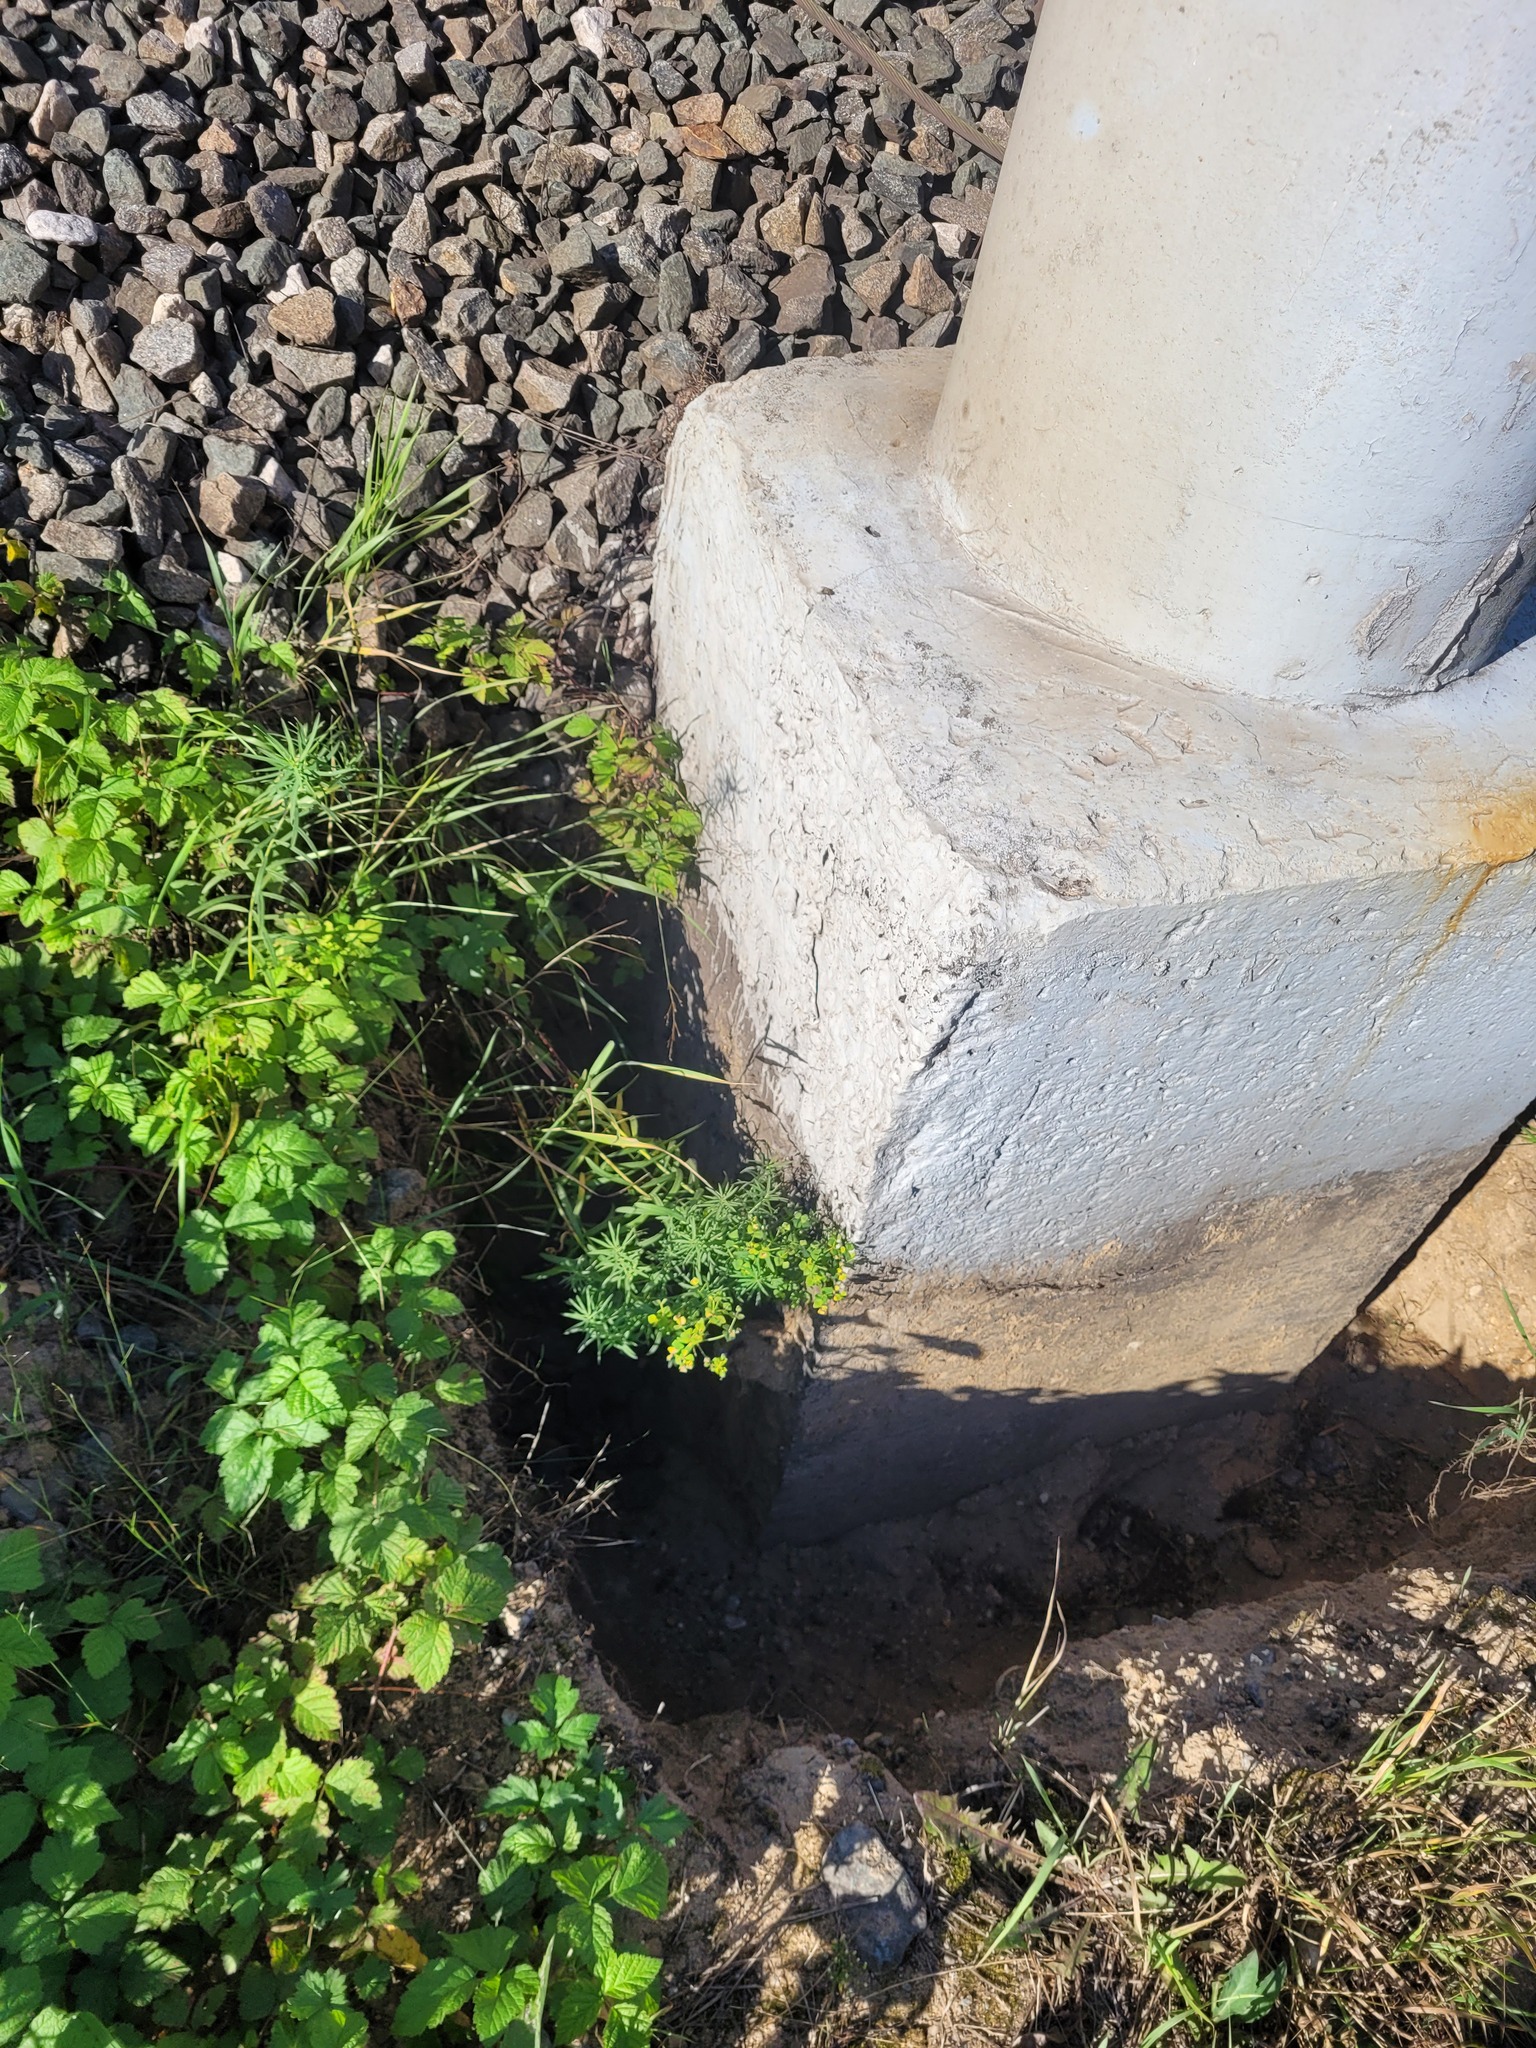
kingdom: Plantae
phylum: Tracheophyta
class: Magnoliopsida
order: Malpighiales
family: Euphorbiaceae
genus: Euphorbia
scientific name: Euphorbia virgata
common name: Leafy spurge
